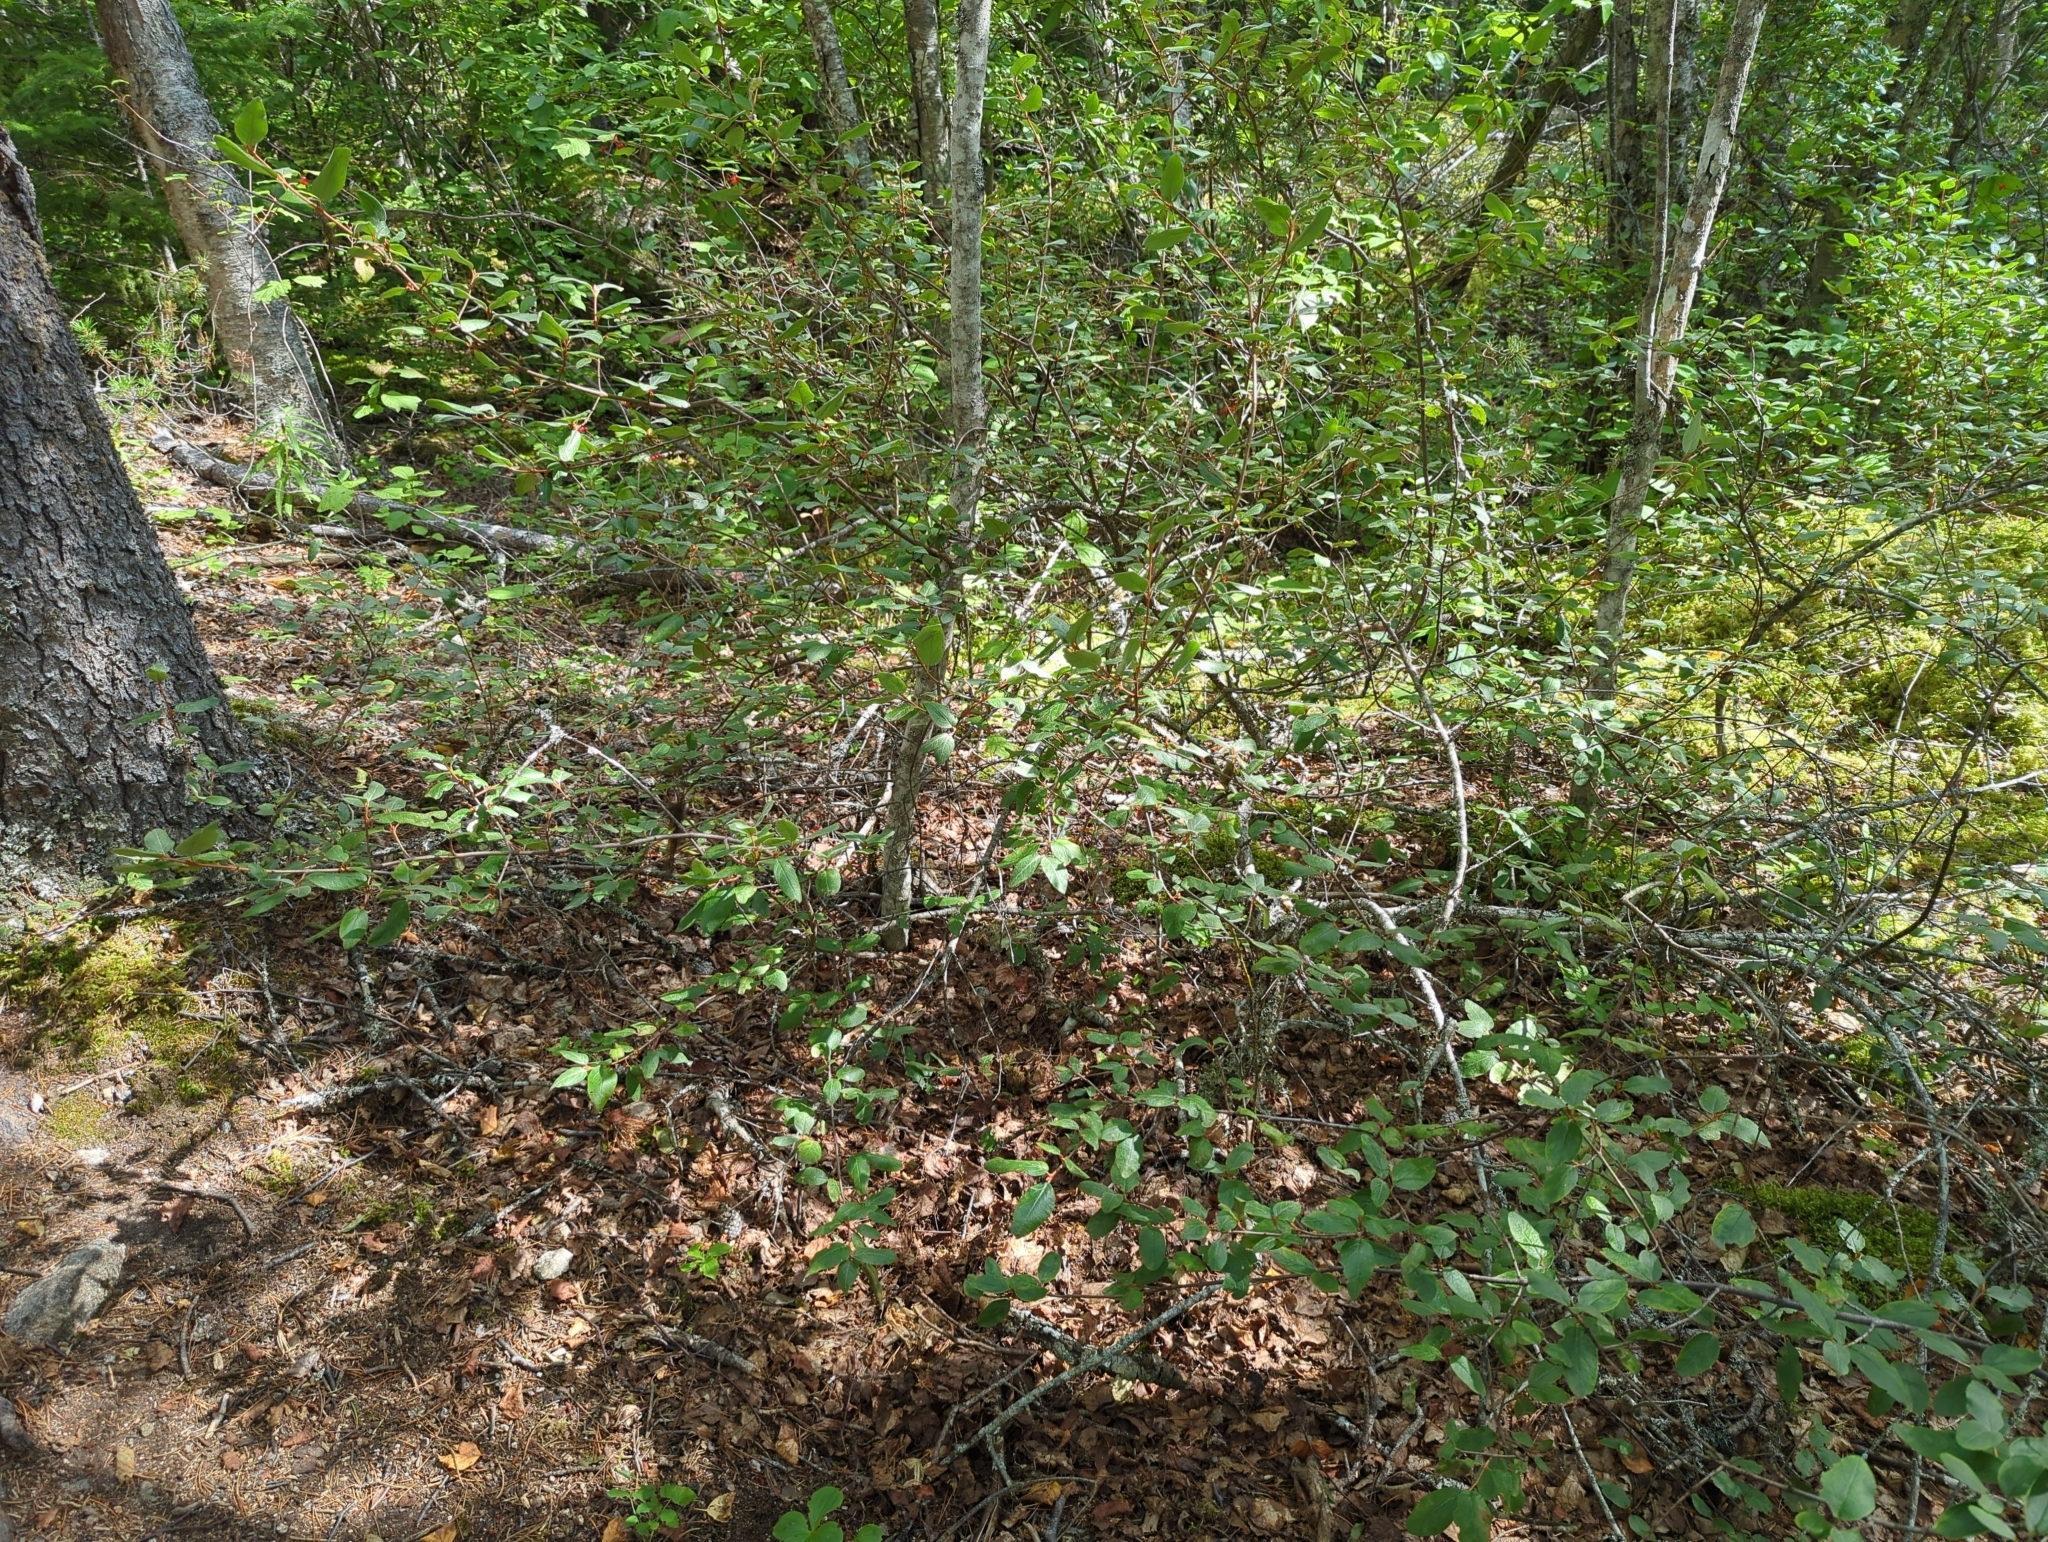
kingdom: Plantae
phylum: Tracheophyta
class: Magnoliopsida
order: Rosales
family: Elaeagnaceae
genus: Shepherdia
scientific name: Shepherdia canadensis
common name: Soapberry
